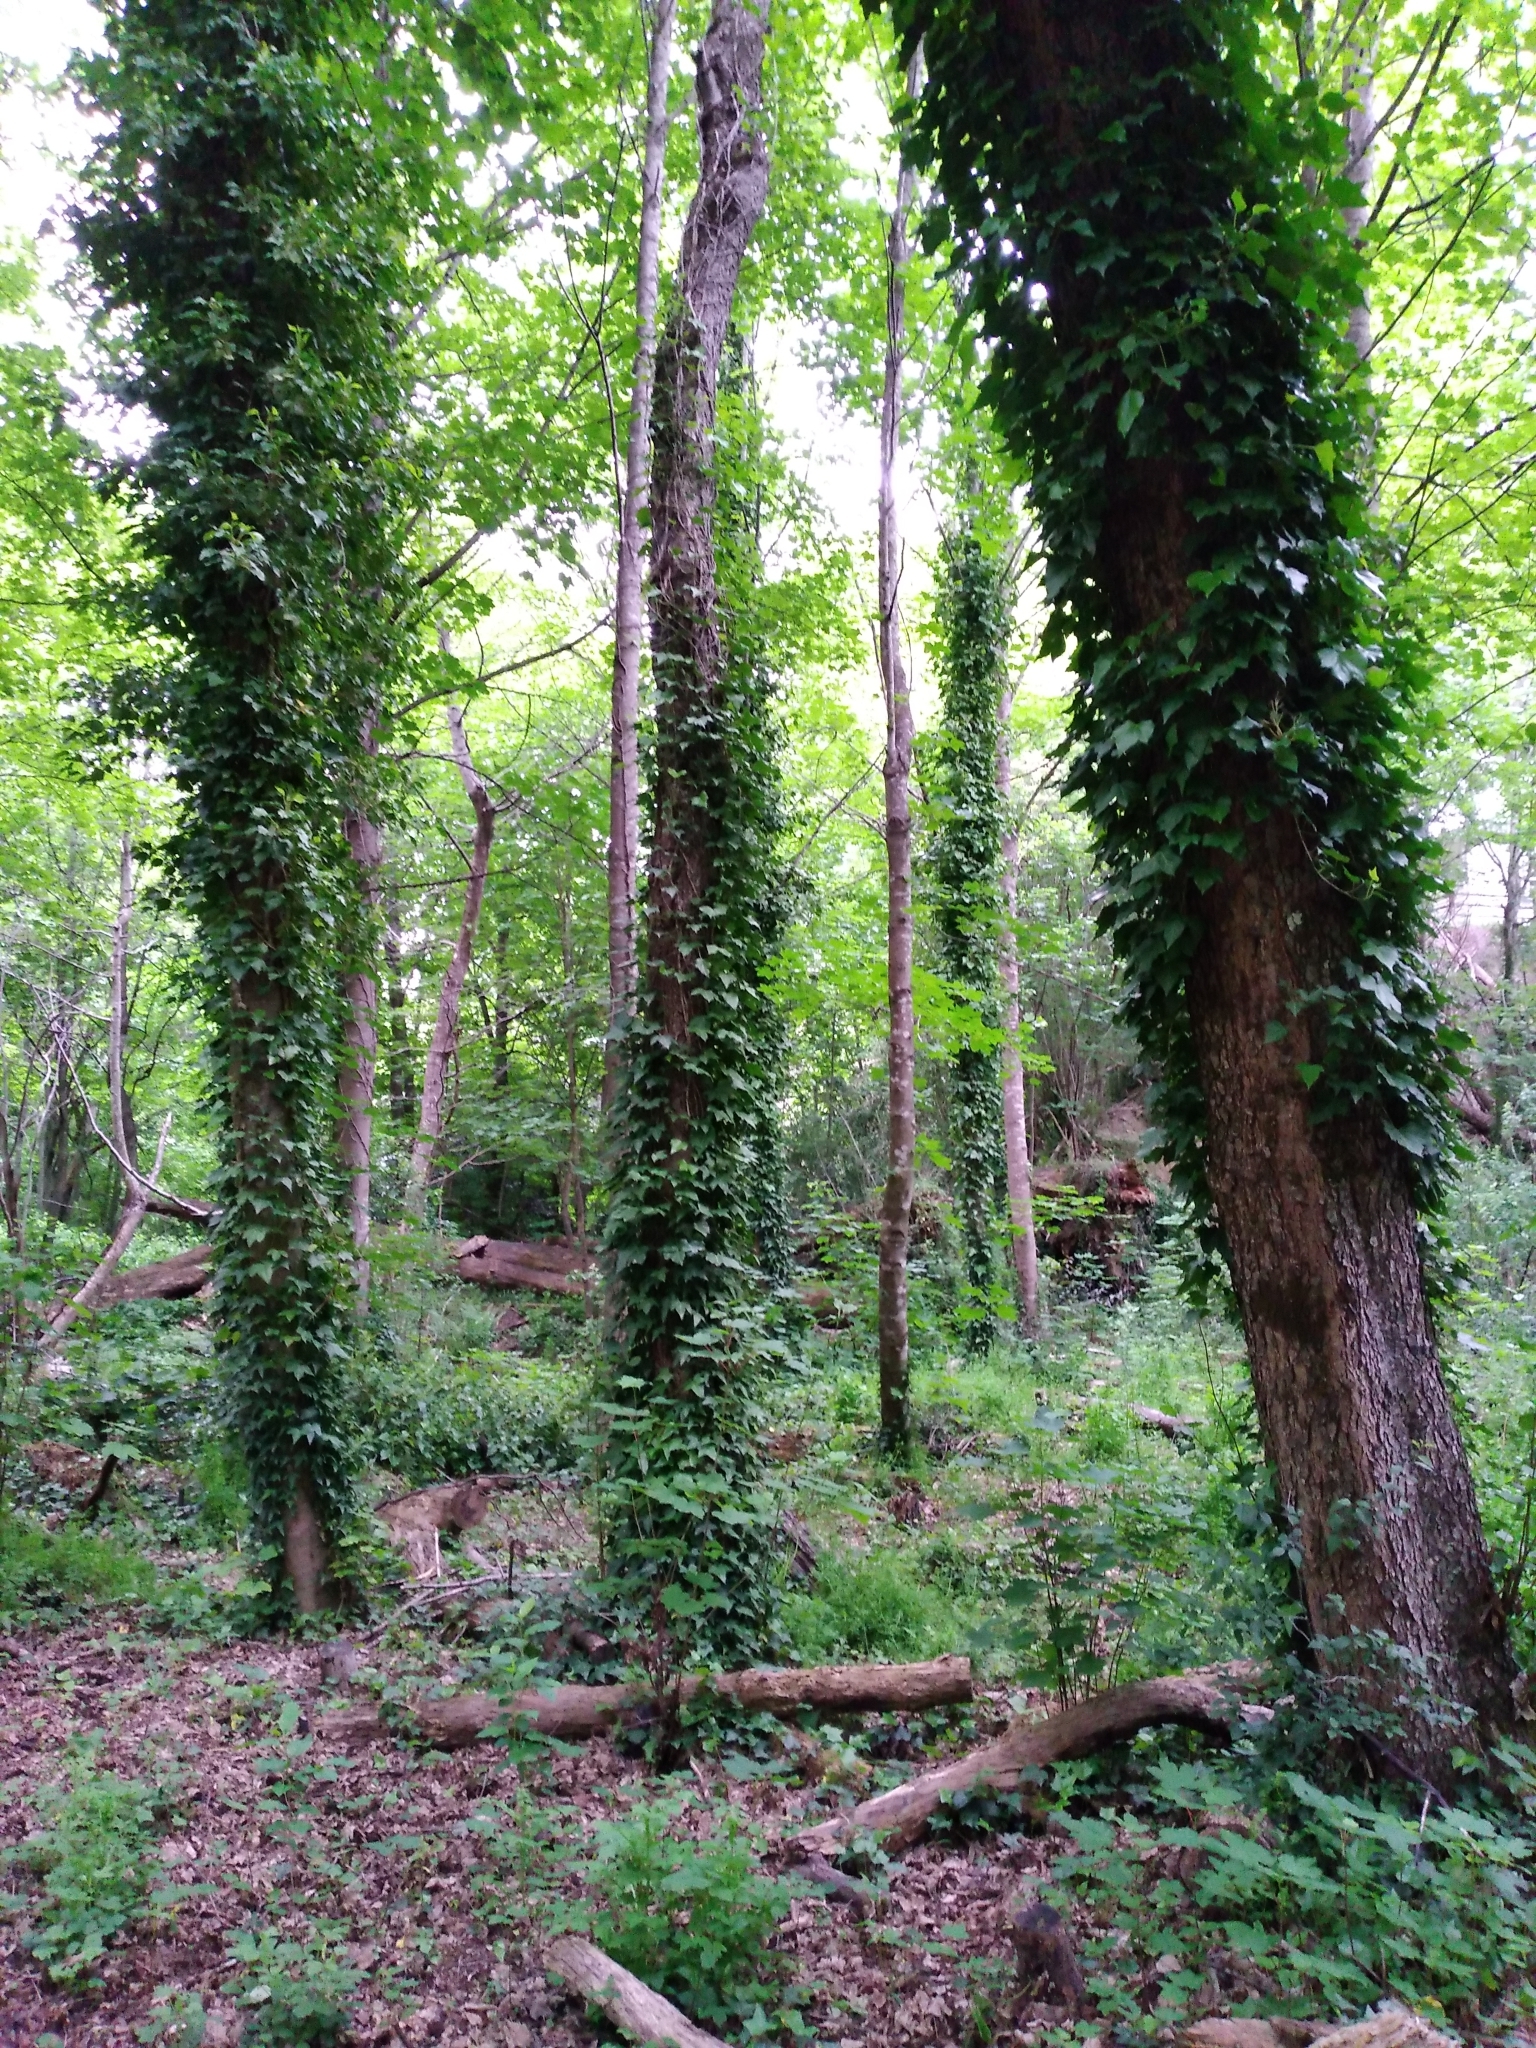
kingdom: Plantae
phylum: Tracheophyta
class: Magnoliopsida
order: Apiales
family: Araliaceae
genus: Hedera
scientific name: Hedera helix
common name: Ivy
